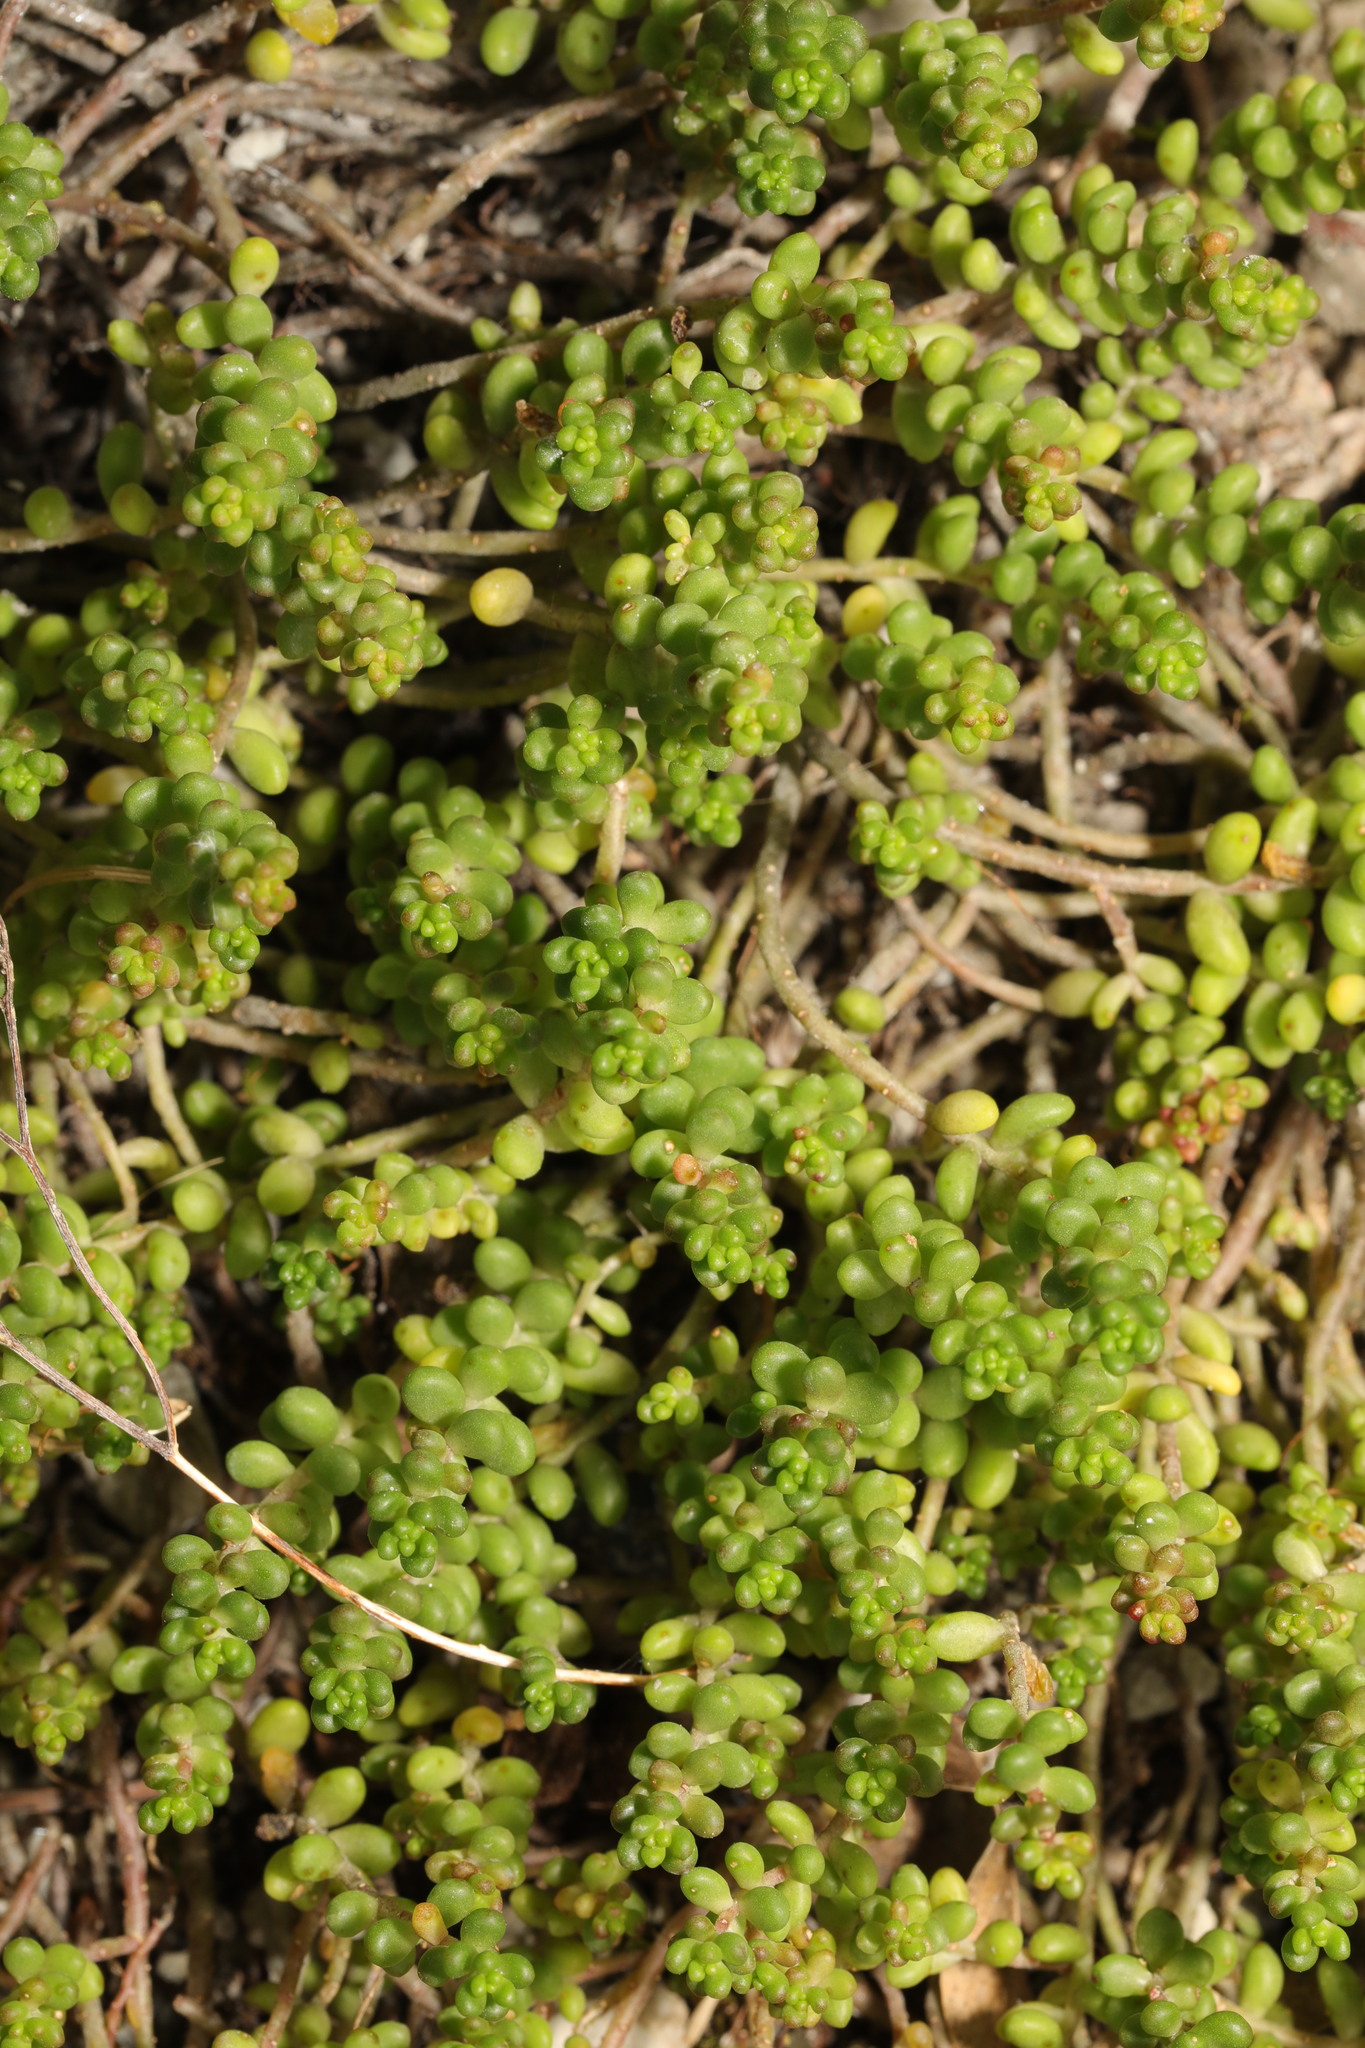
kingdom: Plantae
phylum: Tracheophyta
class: Magnoliopsida
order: Saxifragales
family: Crassulaceae
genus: Sedum
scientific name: Sedum album
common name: White stonecrop
